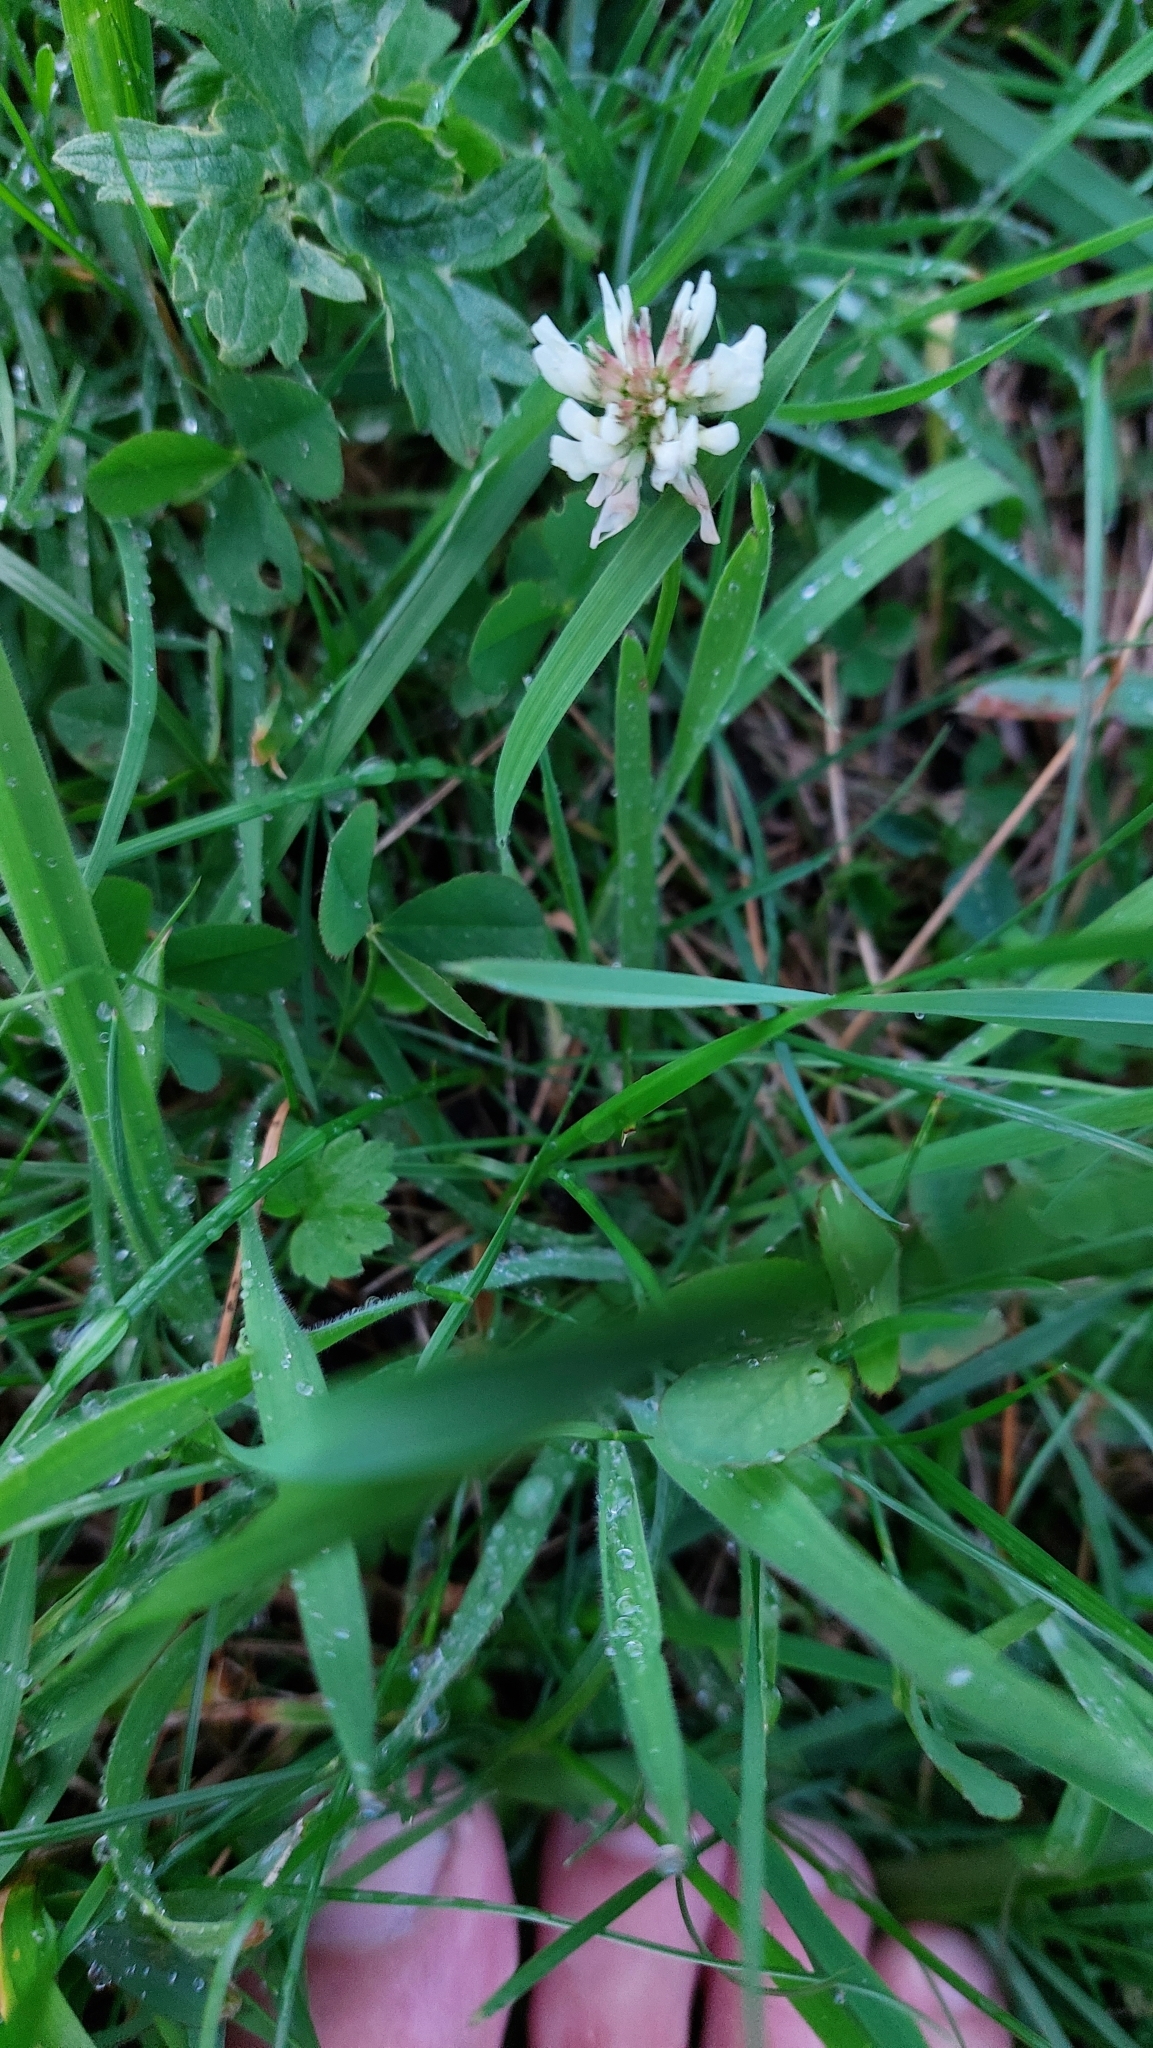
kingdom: Plantae
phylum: Tracheophyta
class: Magnoliopsida
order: Fabales
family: Fabaceae
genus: Trifolium
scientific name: Trifolium repens
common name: White clover
